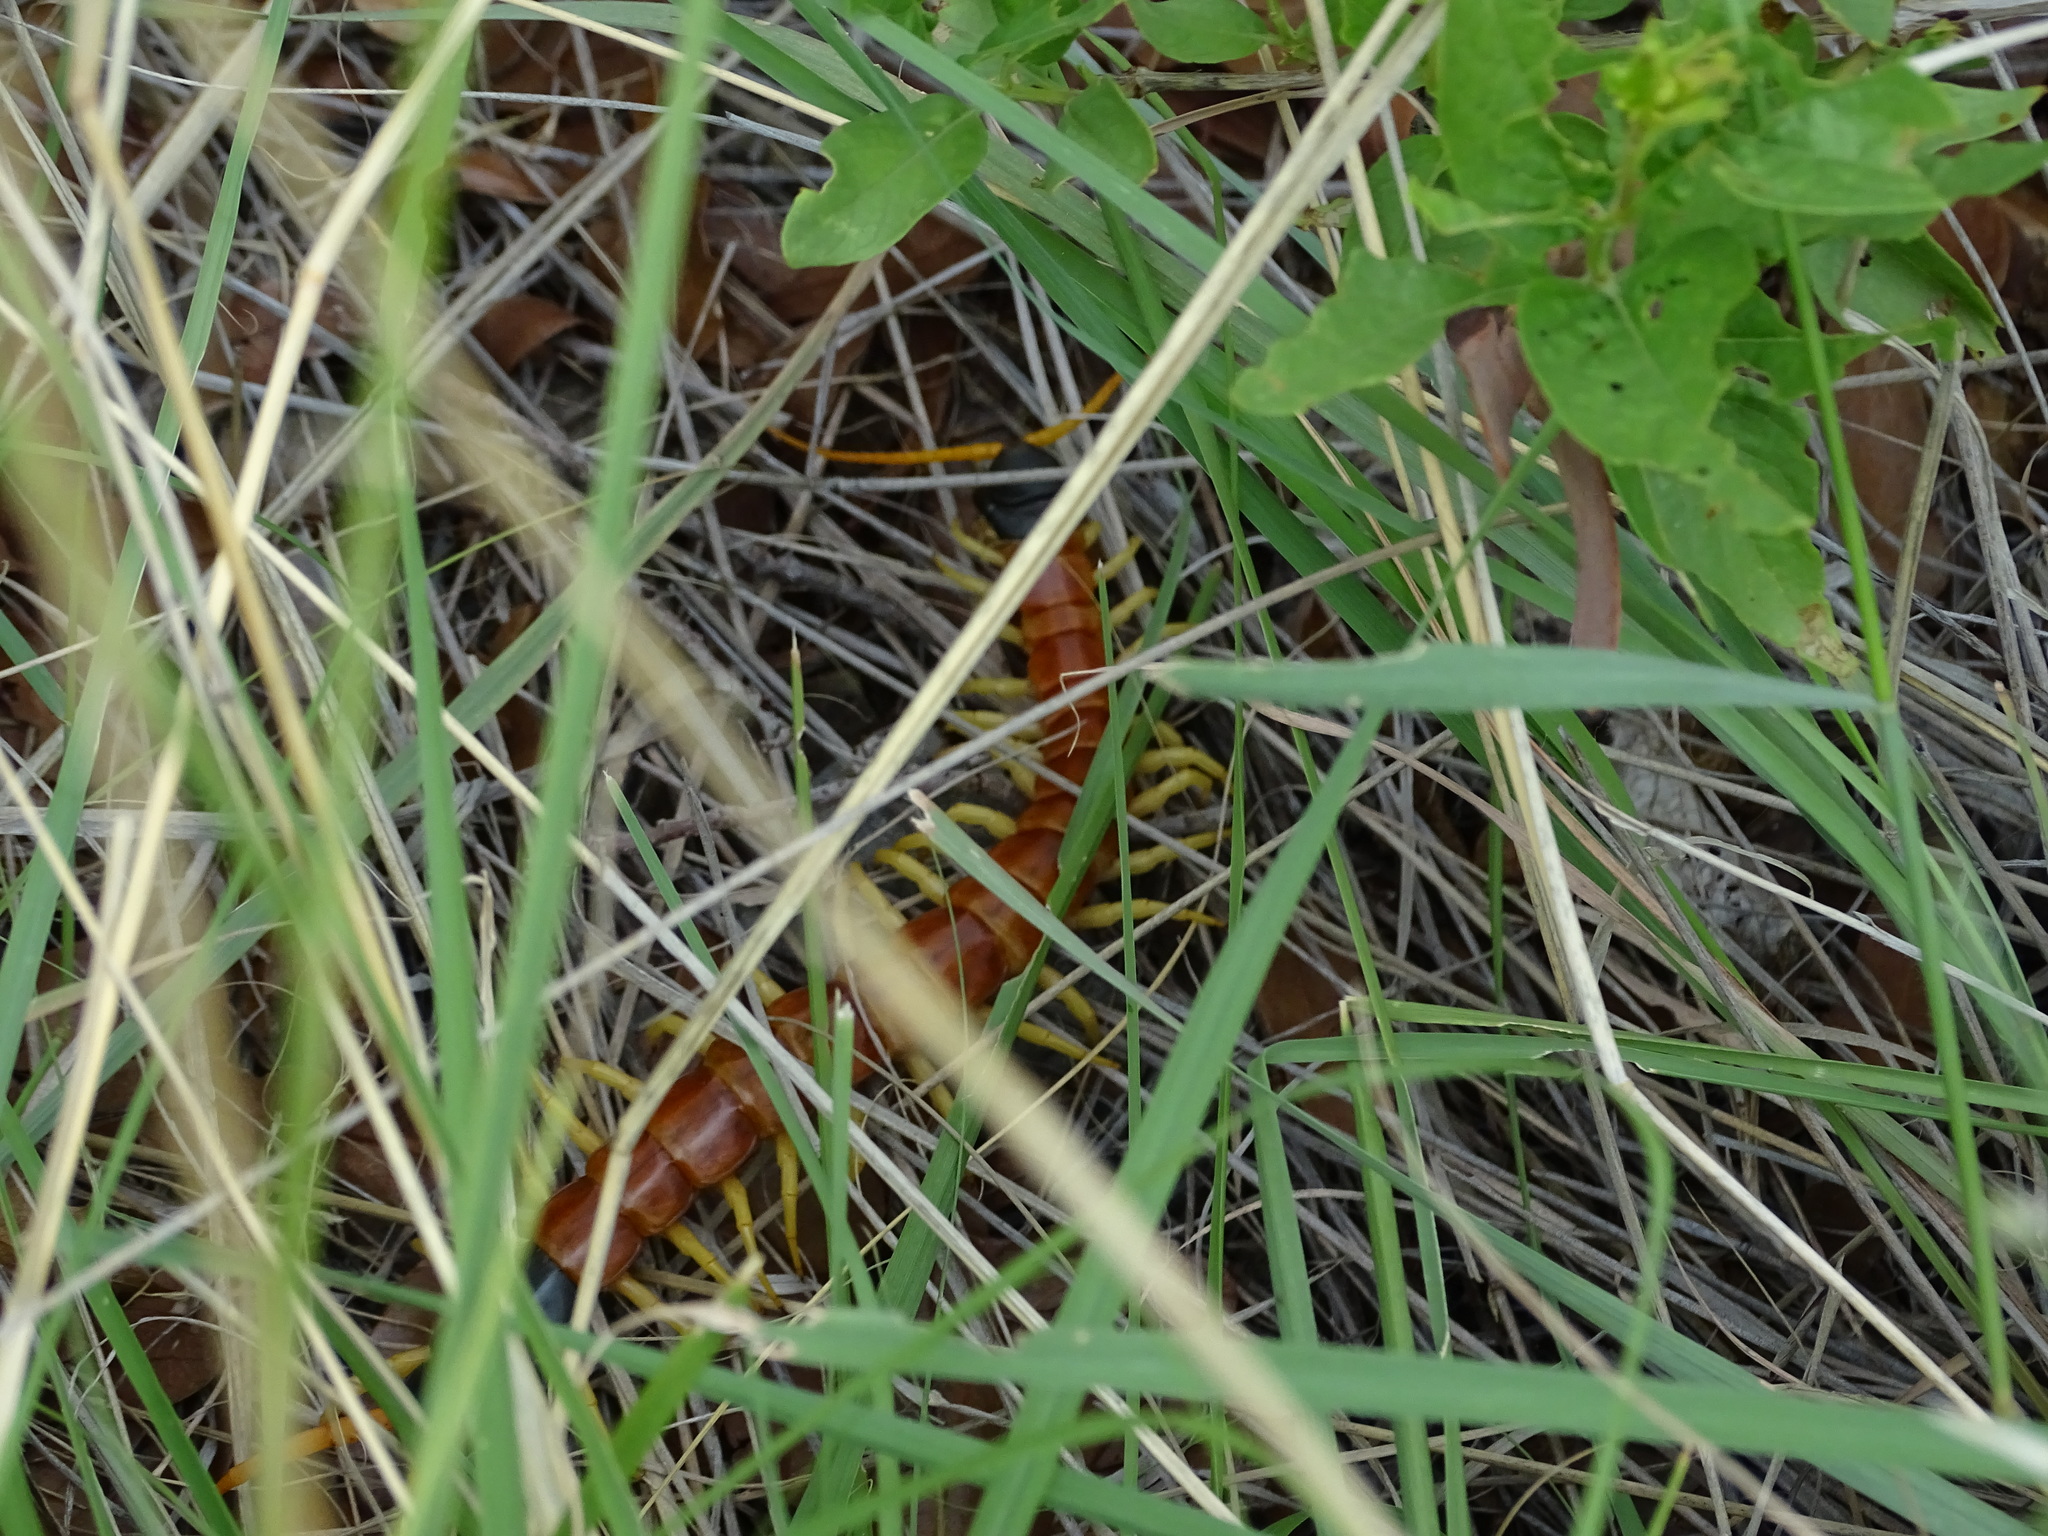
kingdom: Animalia
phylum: Arthropoda
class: Chilopoda
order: Scolopendromorpha
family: Scolopendridae
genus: Scolopendra
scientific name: Scolopendra heros
